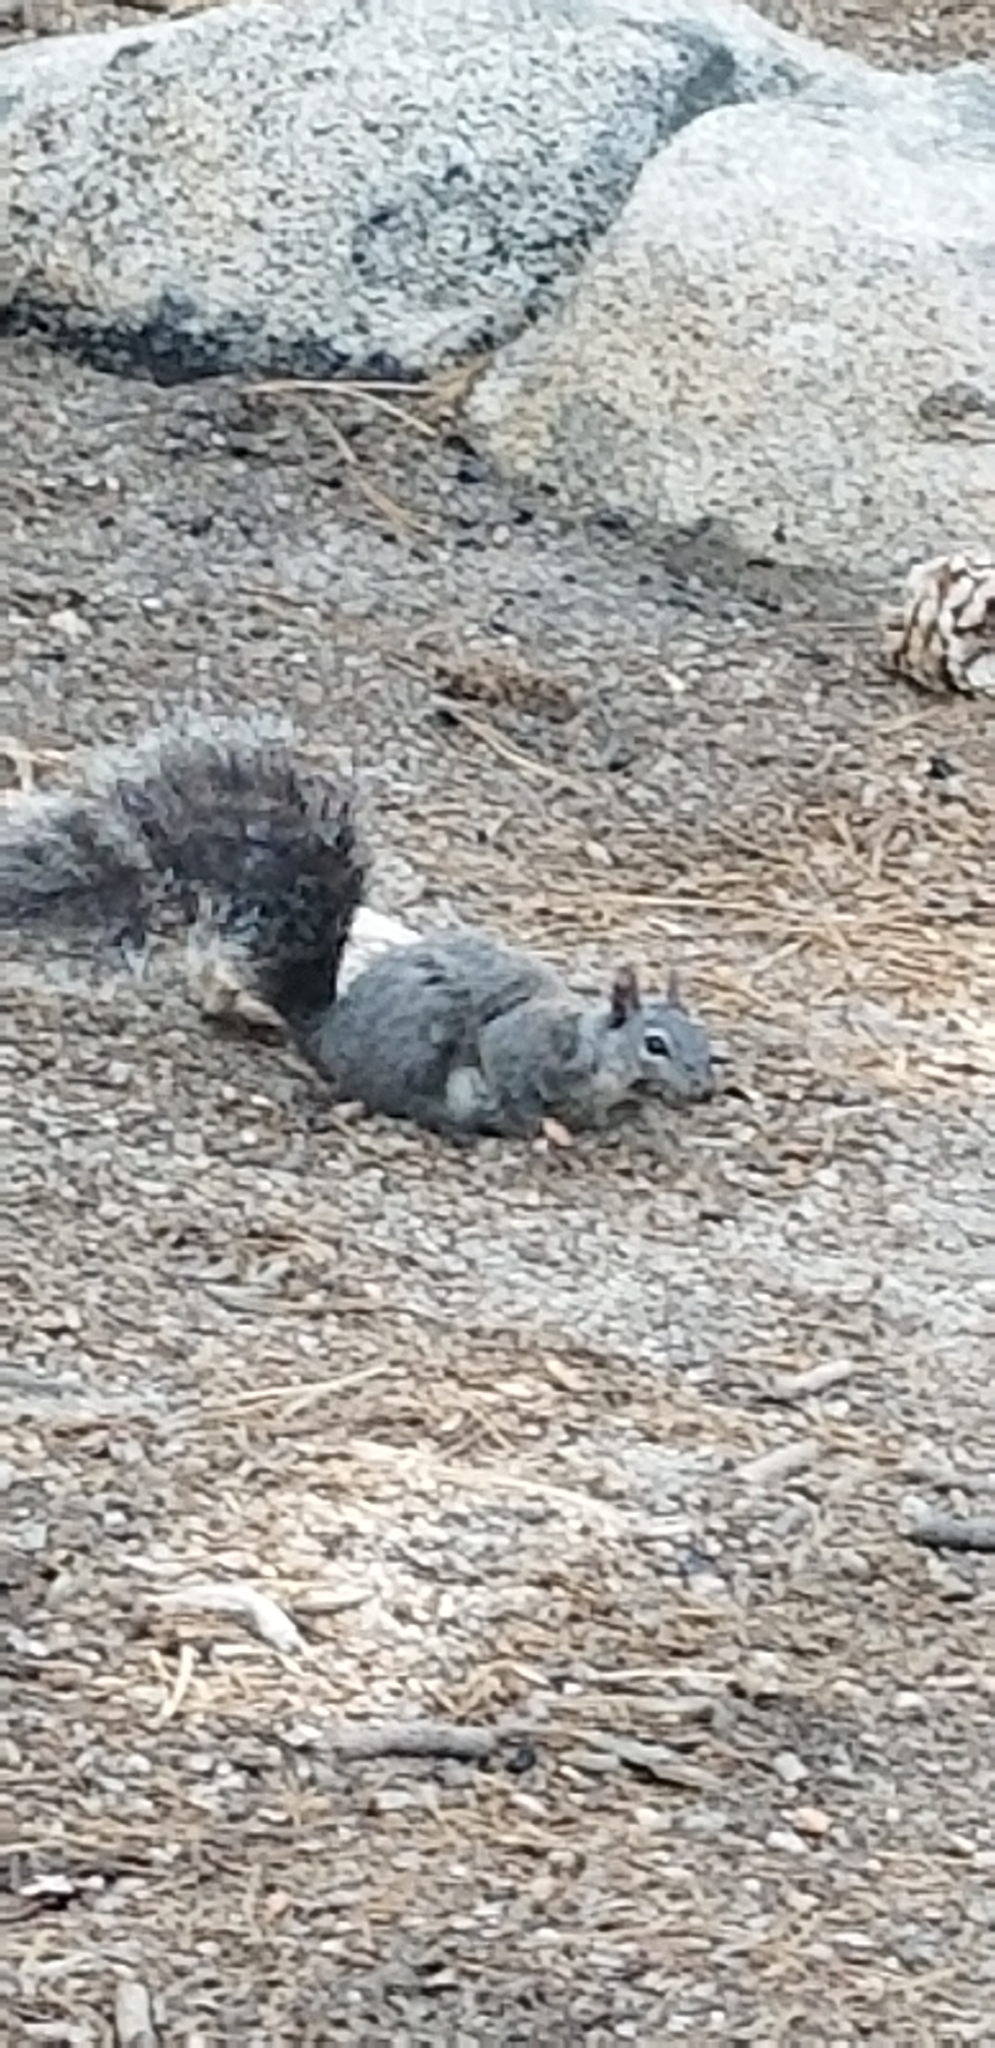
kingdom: Animalia
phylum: Chordata
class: Mammalia
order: Rodentia
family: Sciuridae
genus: Sciurus
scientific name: Sciurus griseus
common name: Western gray squirrel
